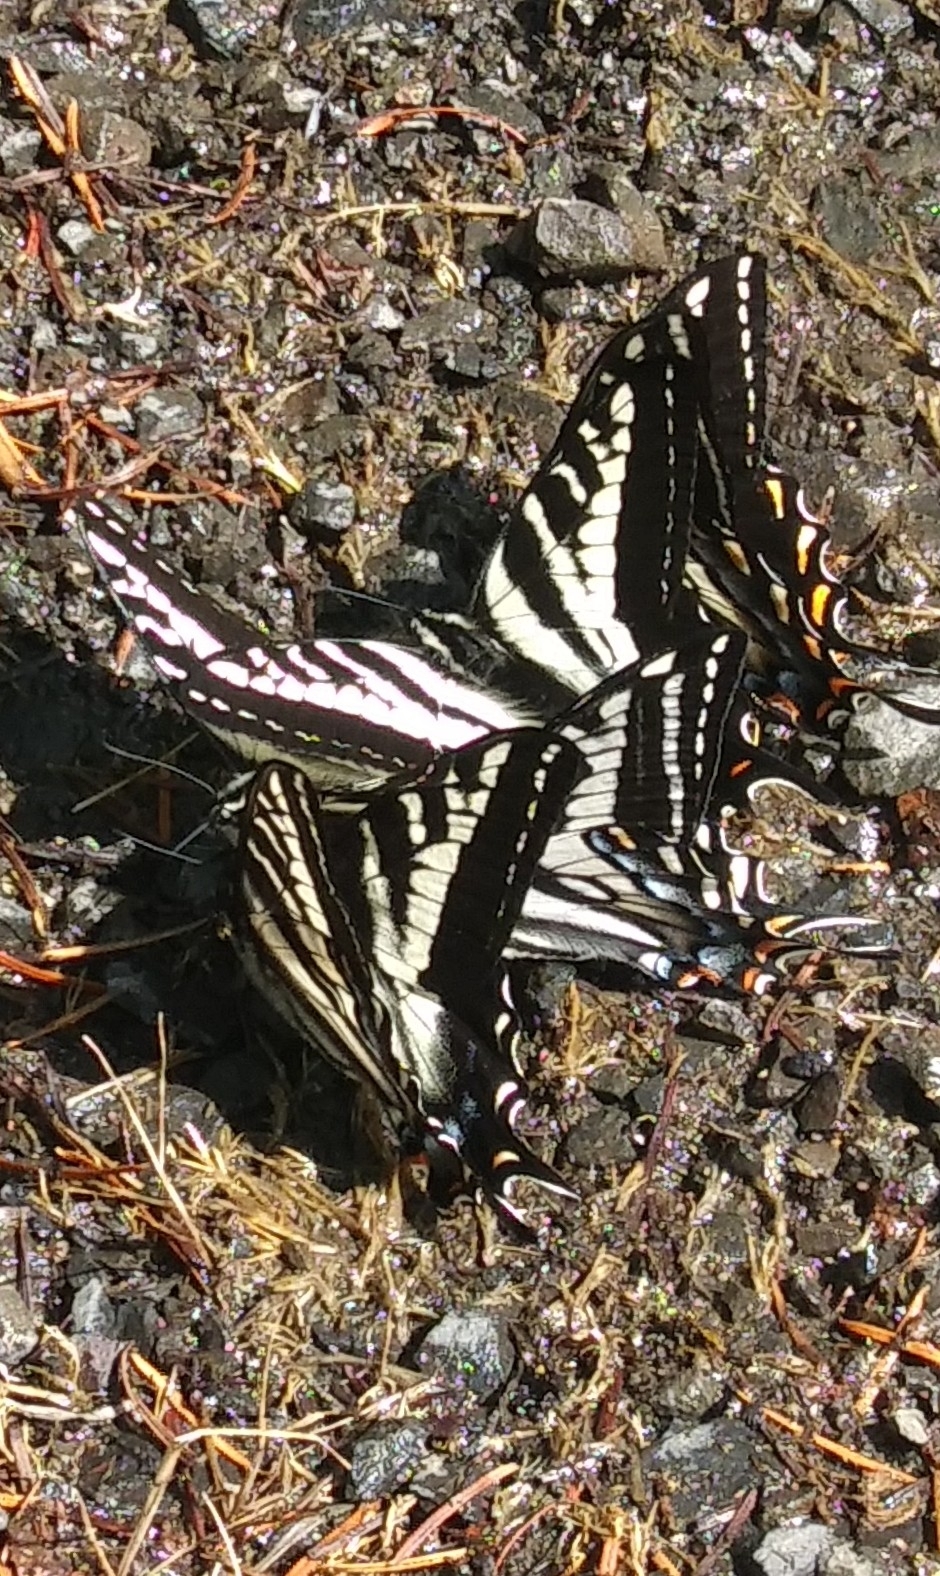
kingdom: Animalia
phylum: Arthropoda
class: Insecta
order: Lepidoptera
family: Papilionidae
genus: Papilio
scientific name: Papilio eurymedon
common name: Pale tiger swallowtail
